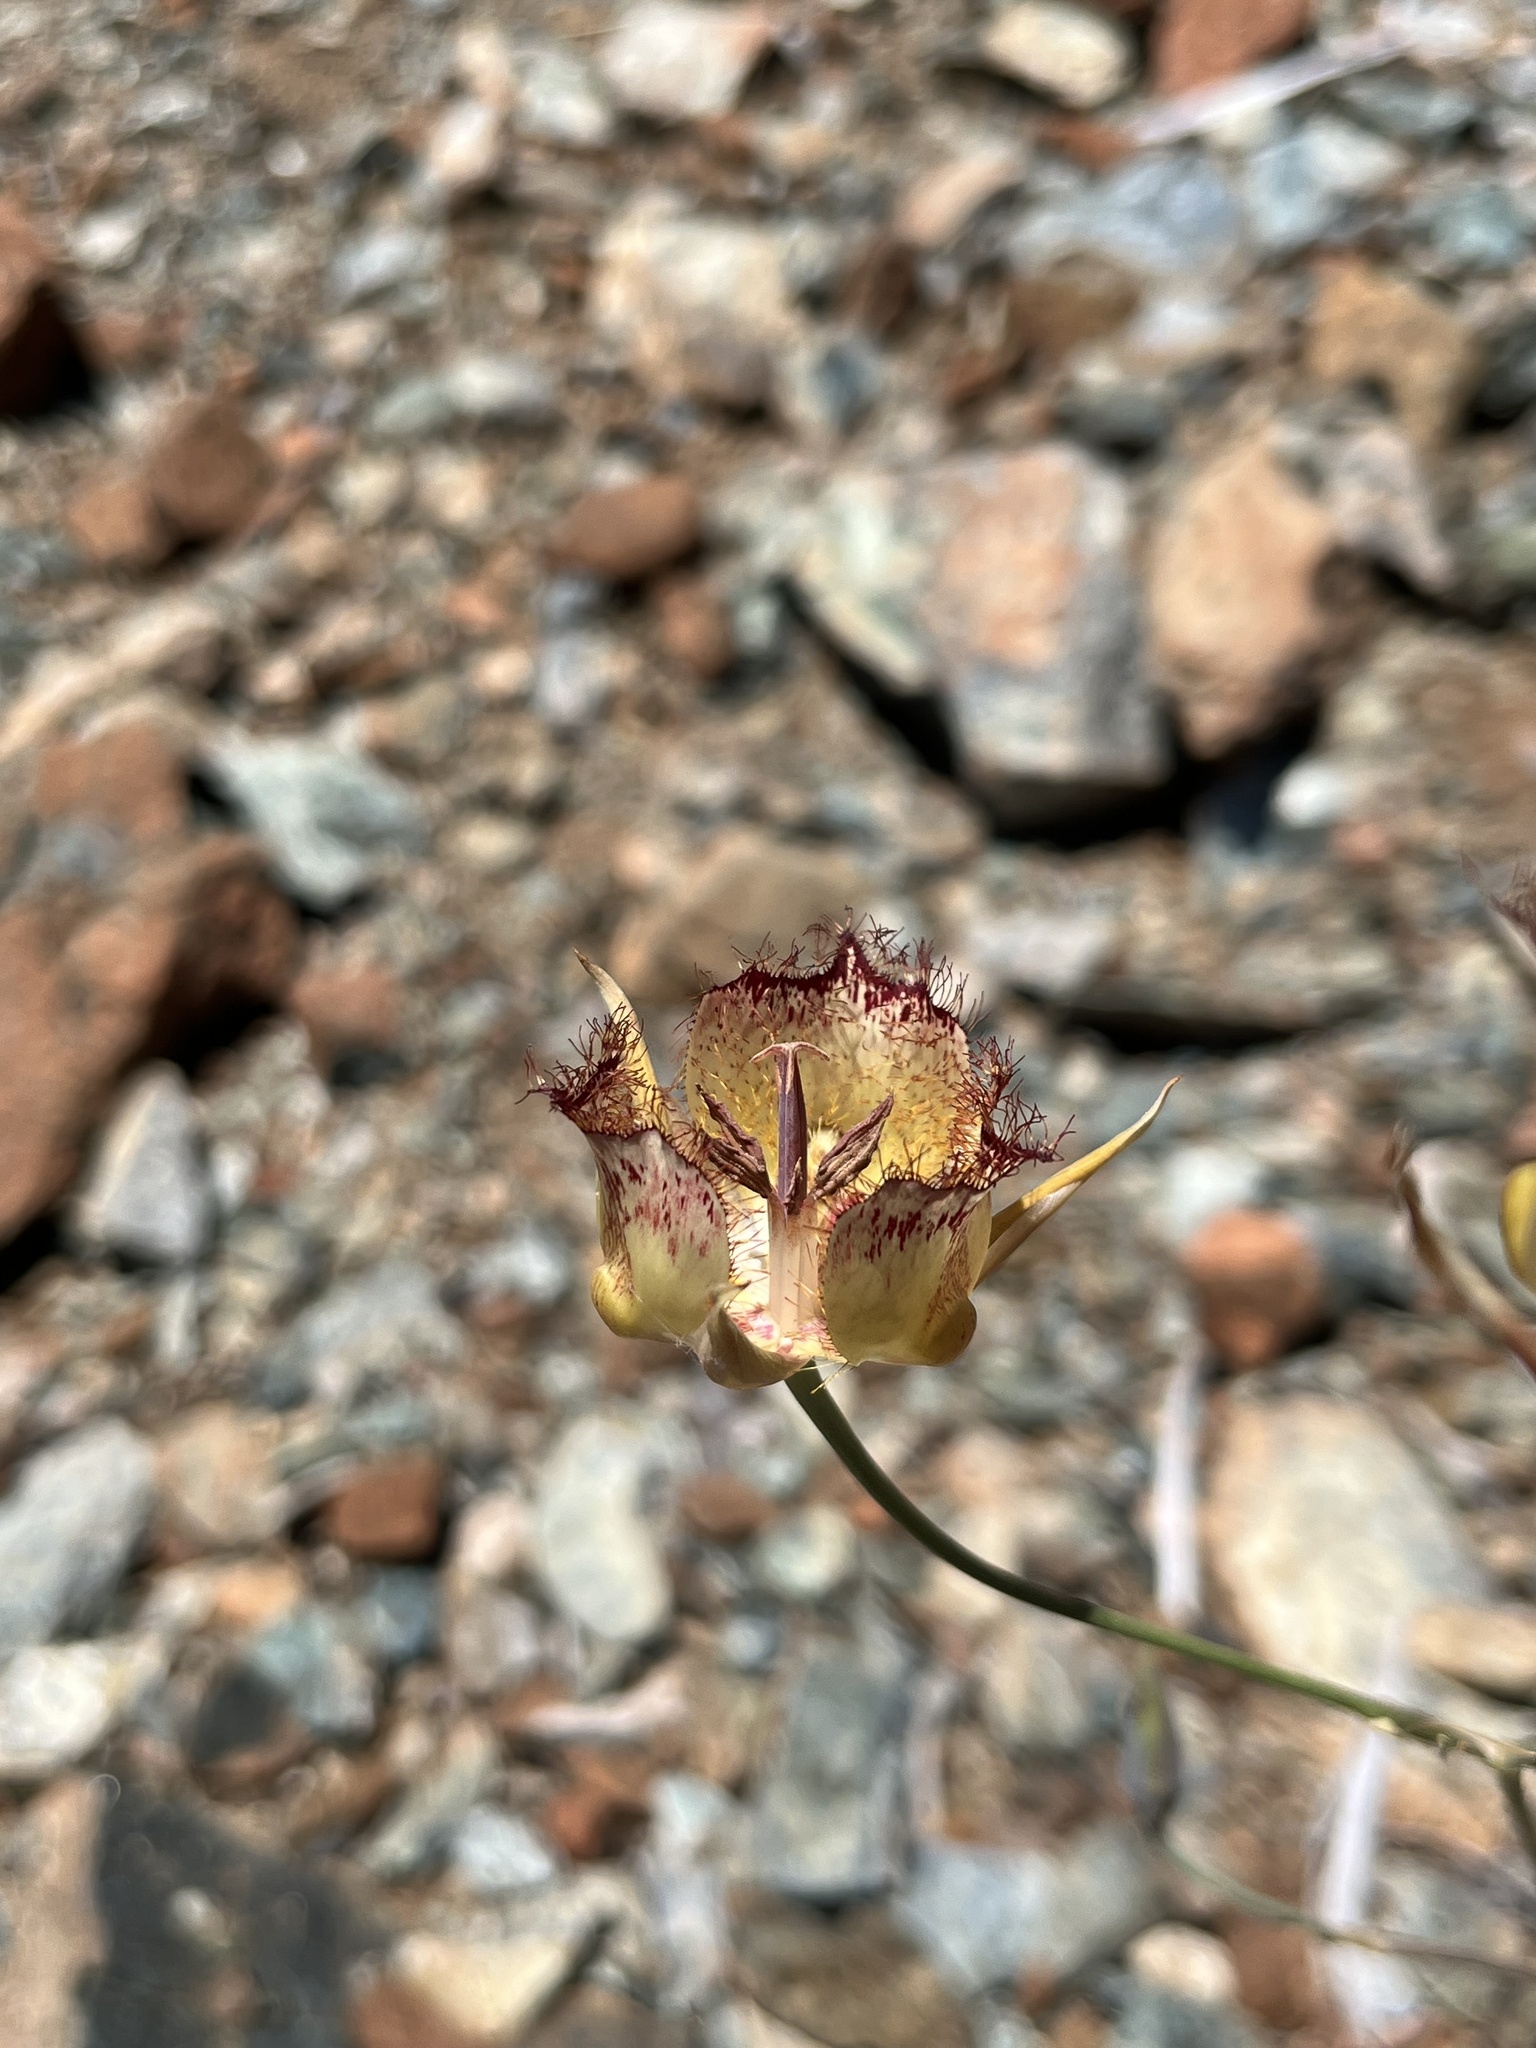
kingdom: Plantae
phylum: Tracheophyta
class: Liliopsida
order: Liliales
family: Liliaceae
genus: Calochortus
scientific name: Calochortus fimbriatus
